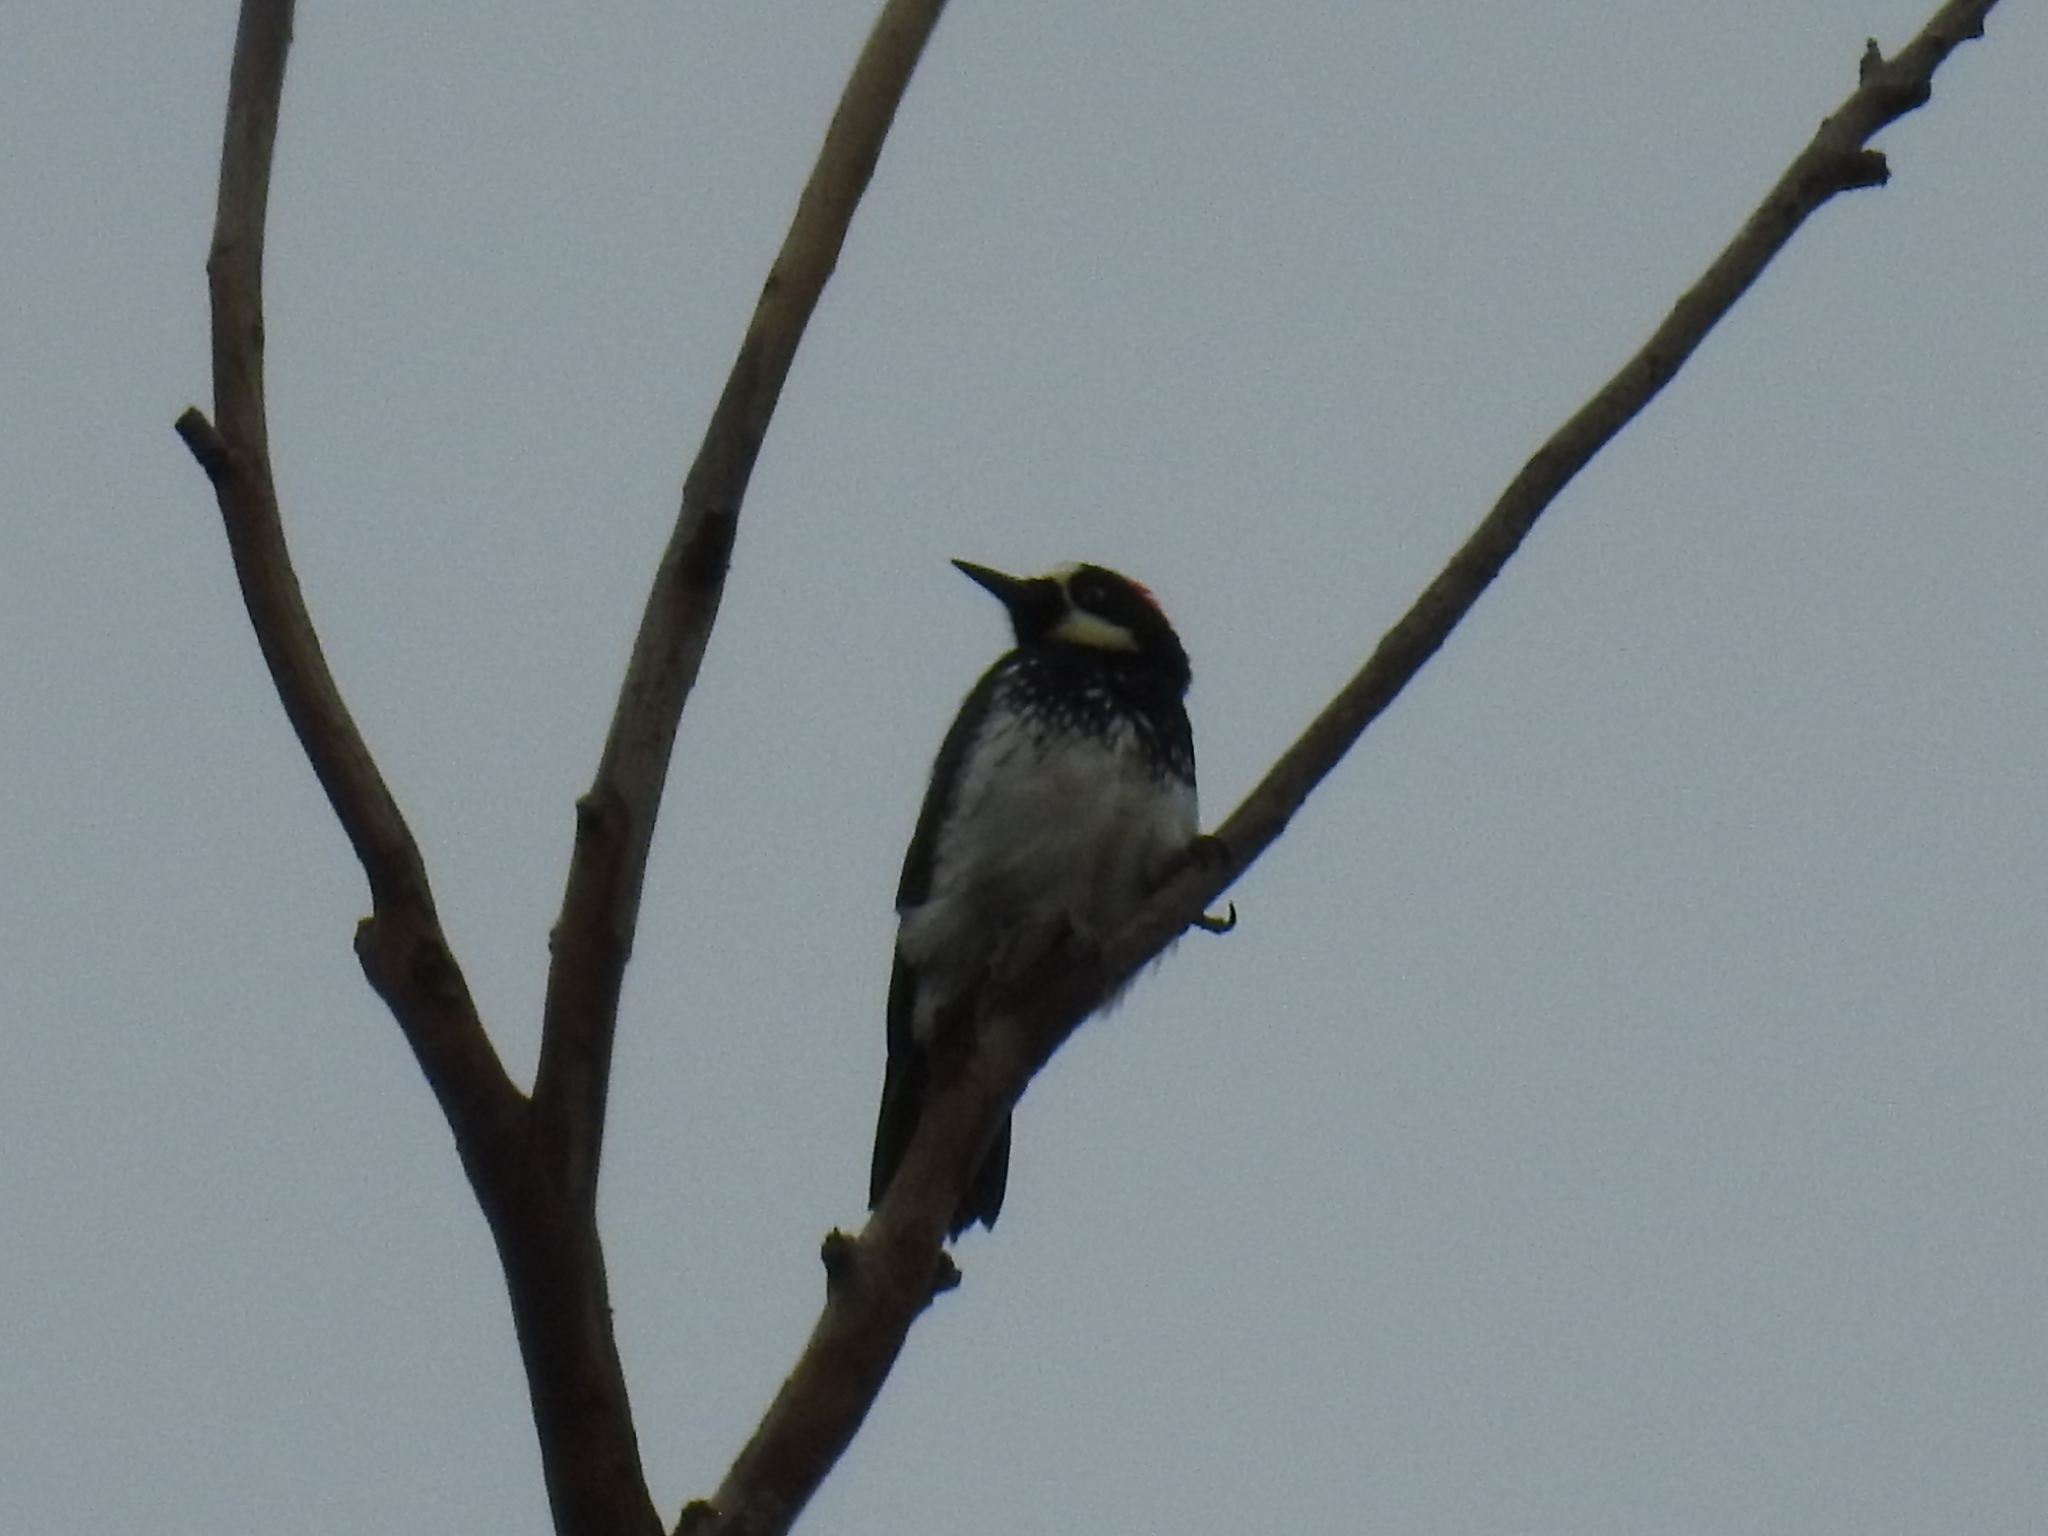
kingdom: Animalia
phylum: Chordata
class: Aves
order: Piciformes
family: Picidae
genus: Melanerpes
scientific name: Melanerpes formicivorus
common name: Acorn woodpecker
